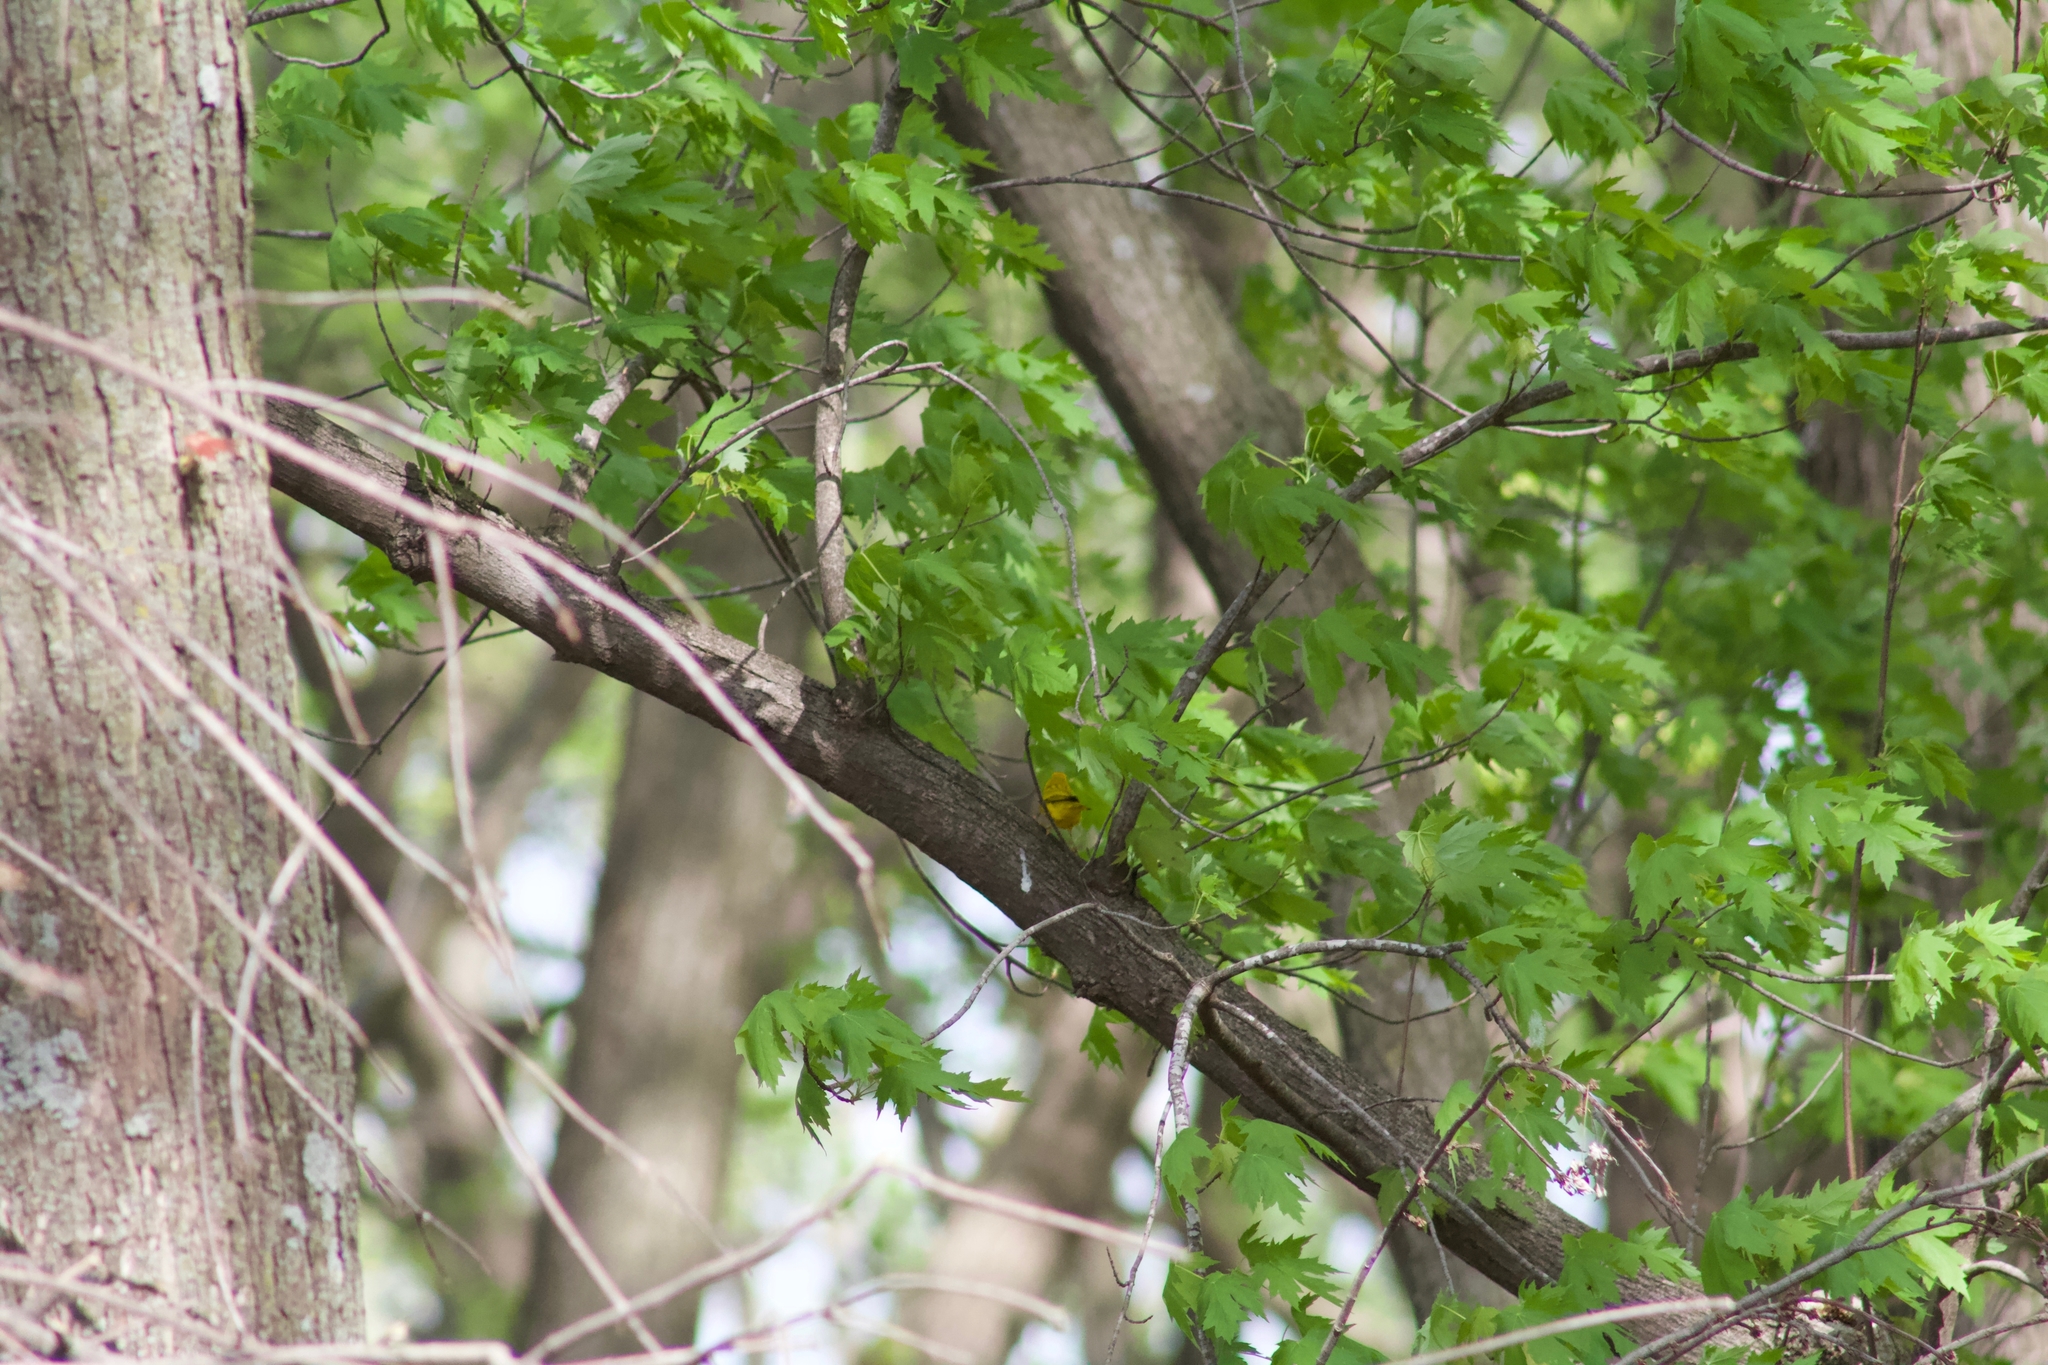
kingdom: Animalia
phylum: Chordata
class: Aves
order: Passeriformes
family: Parulidae
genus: Setophaga
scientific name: Setophaga petechia
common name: Yellow warbler
